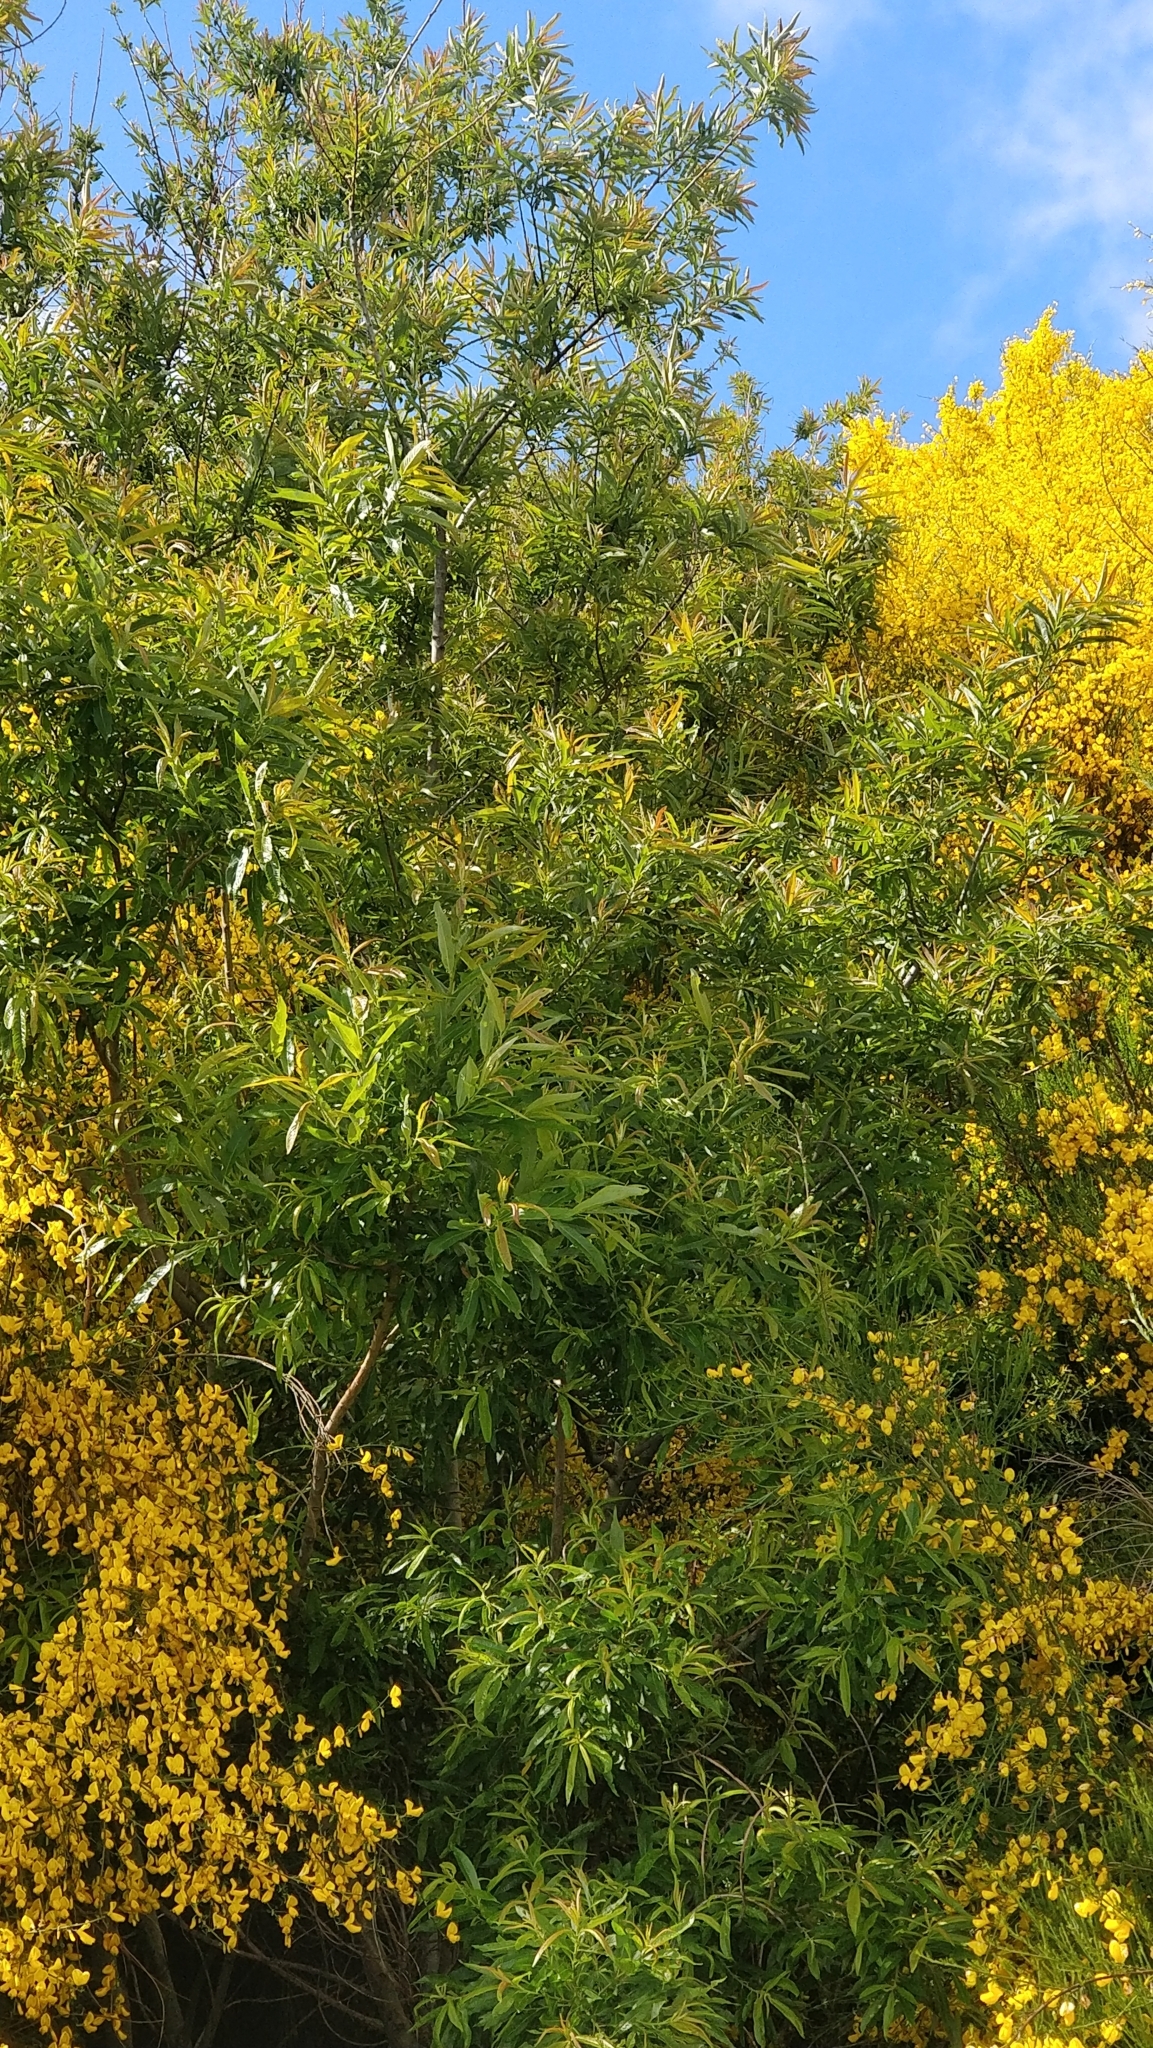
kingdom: Plantae
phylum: Tracheophyta
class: Magnoliopsida
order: Malpighiales
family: Salicaceae
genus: Salix
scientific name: Salix canariensis
